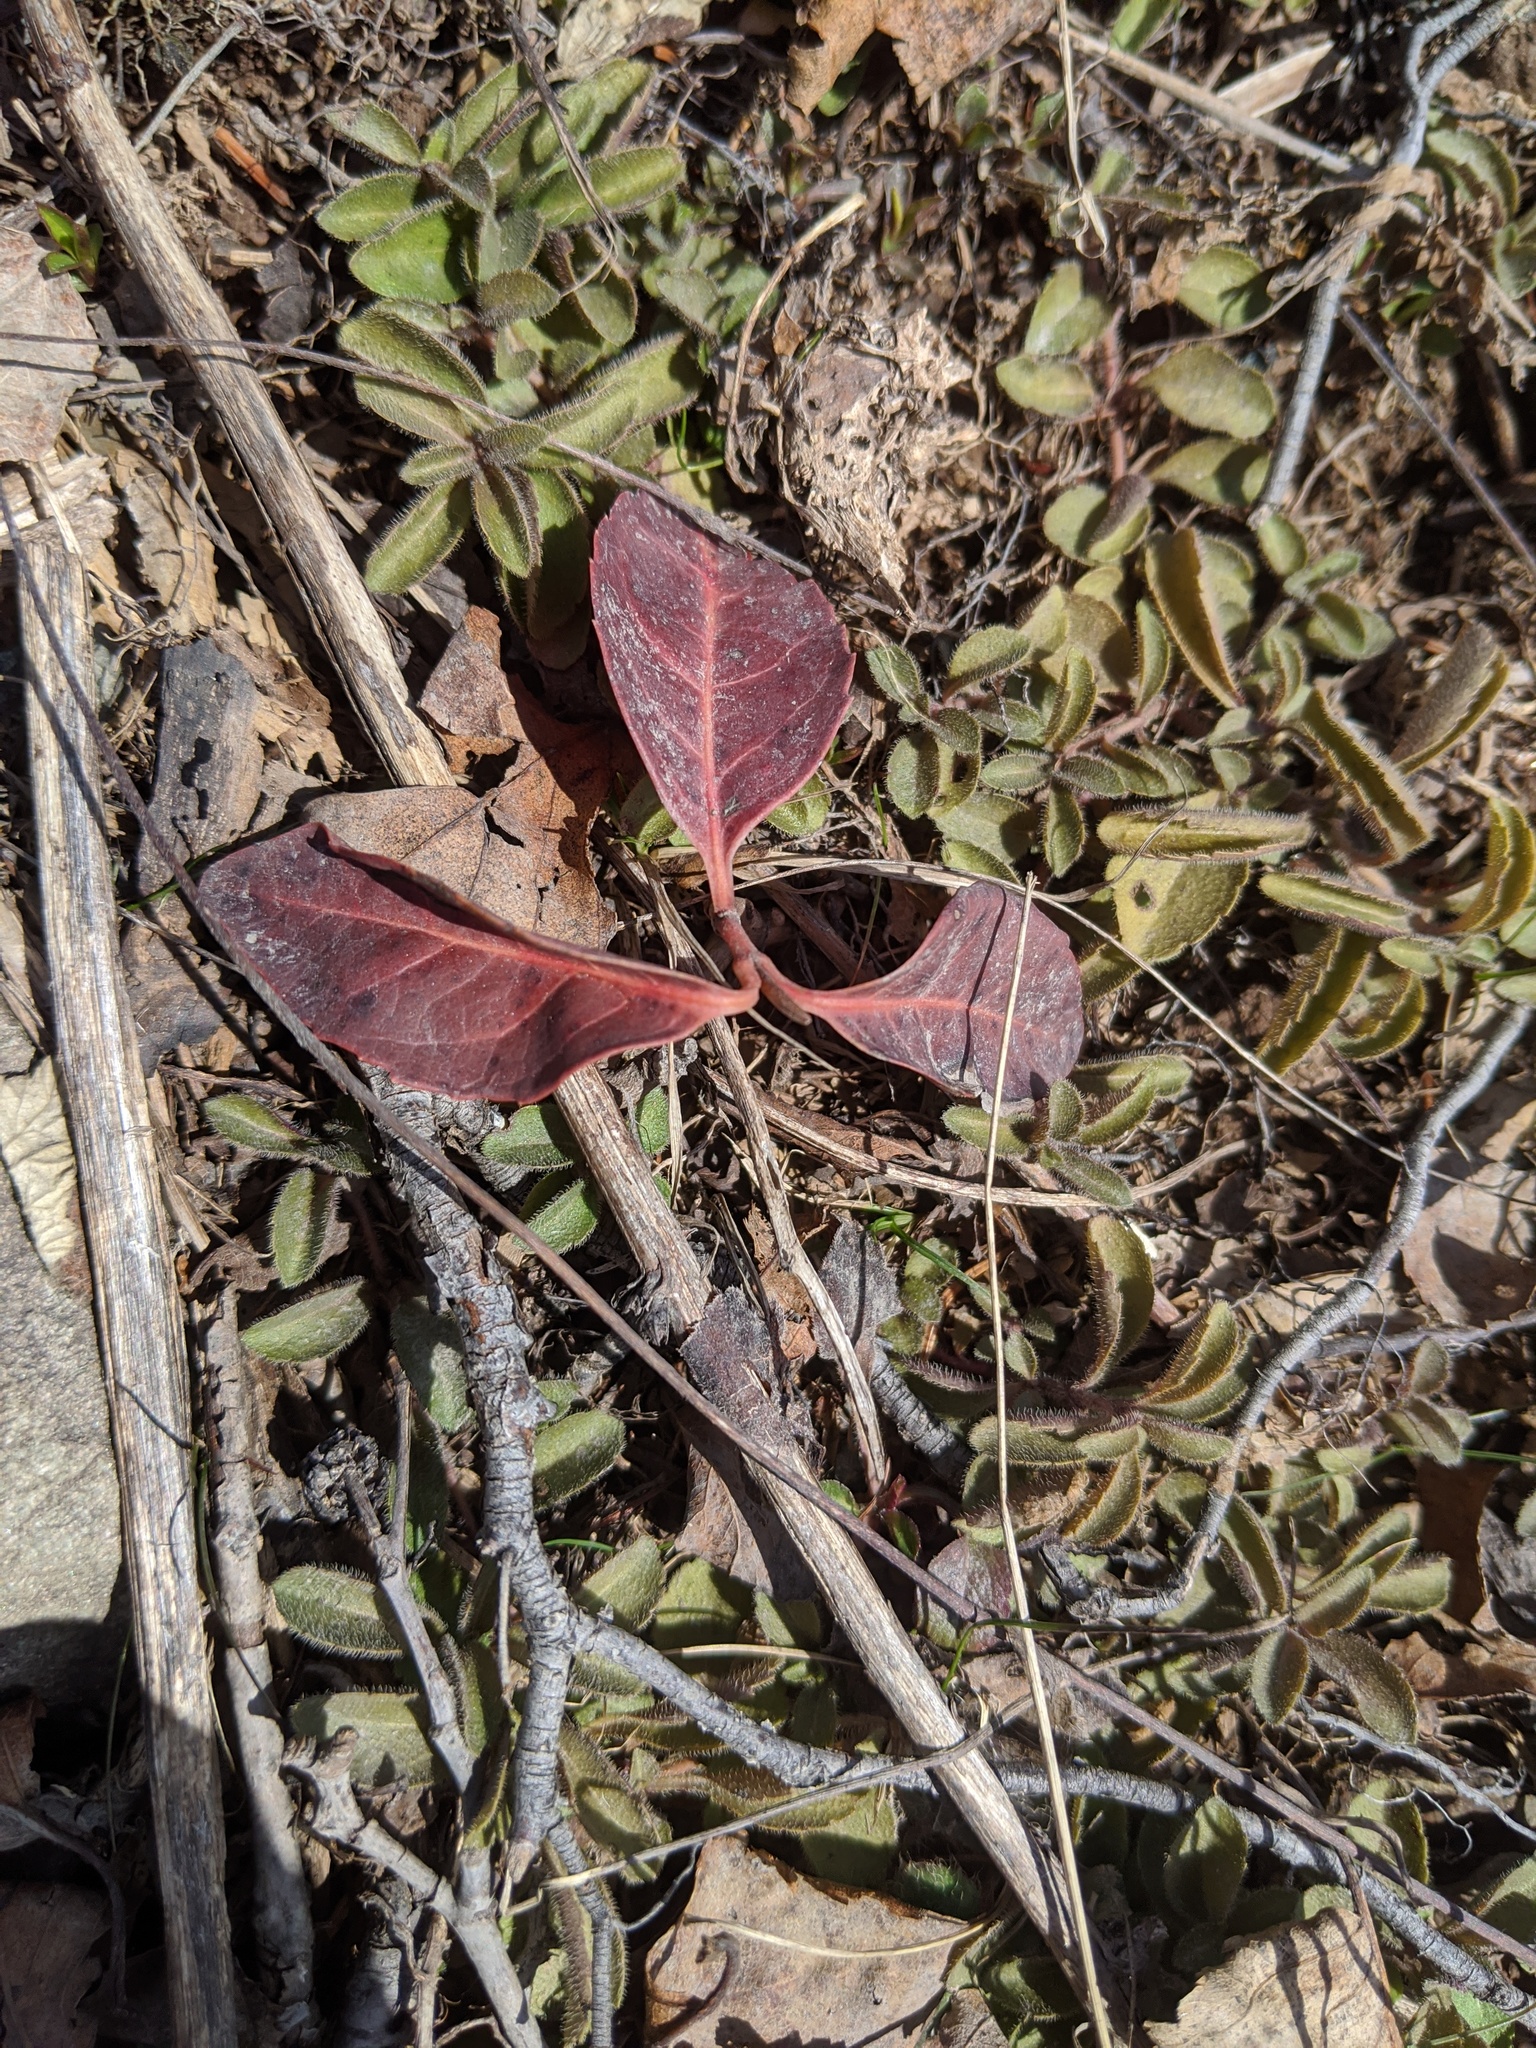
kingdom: Plantae
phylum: Tracheophyta
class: Magnoliopsida
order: Ericales
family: Ericaceae
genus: Gaultheria
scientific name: Gaultheria procumbens
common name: Checkerberry
